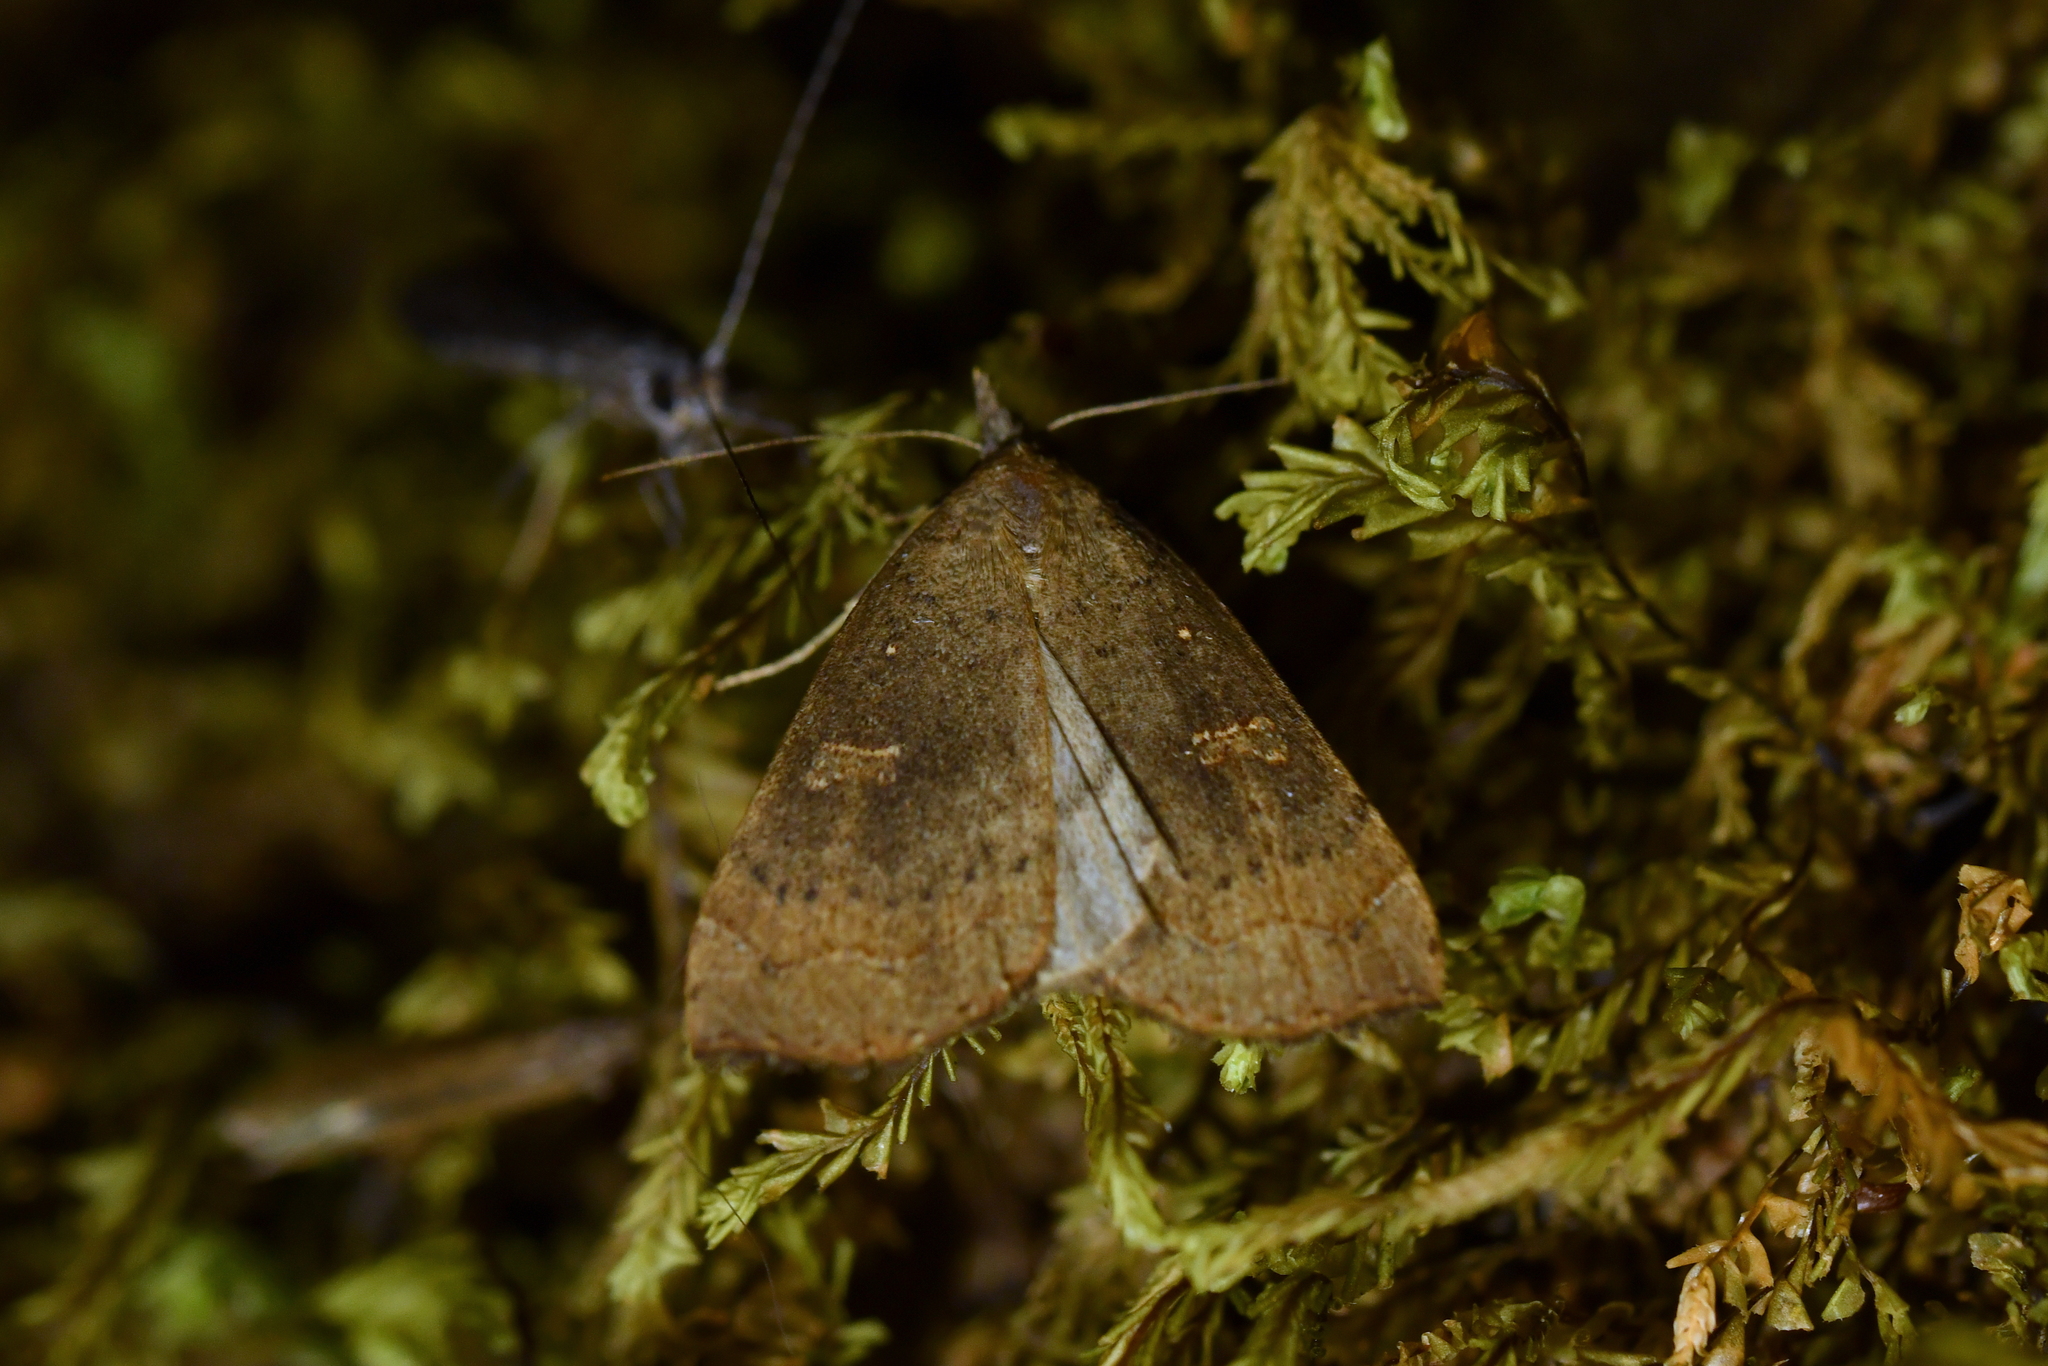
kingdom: Animalia
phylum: Arthropoda
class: Insecta
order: Lepidoptera
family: Erebidae
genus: Rhapsa
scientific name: Rhapsa scotosialis
